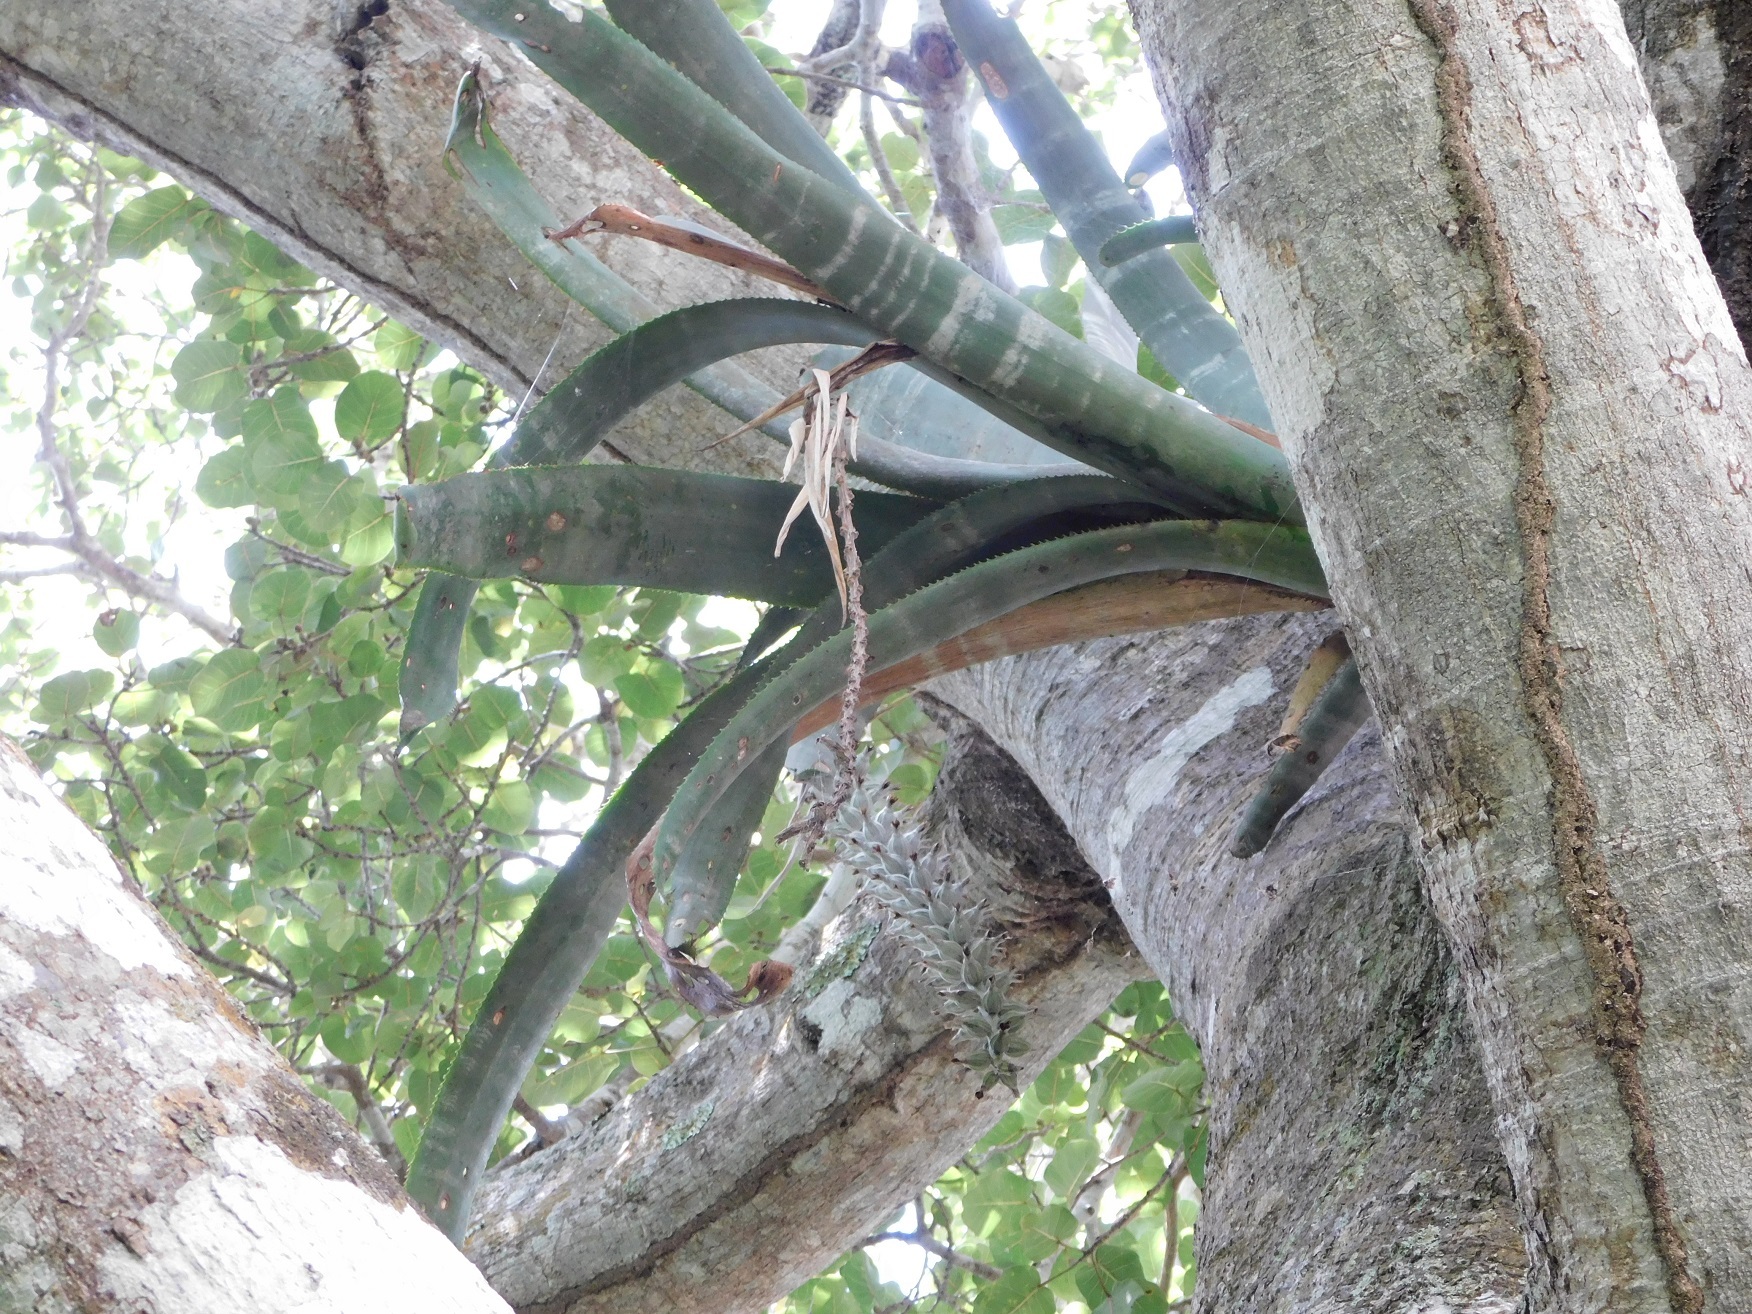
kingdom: Plantae
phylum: Tracheophyta
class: Liliopsida
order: Poales
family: Bromeliaceae
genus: Billbergia
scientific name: Billbergia pallidiflora
